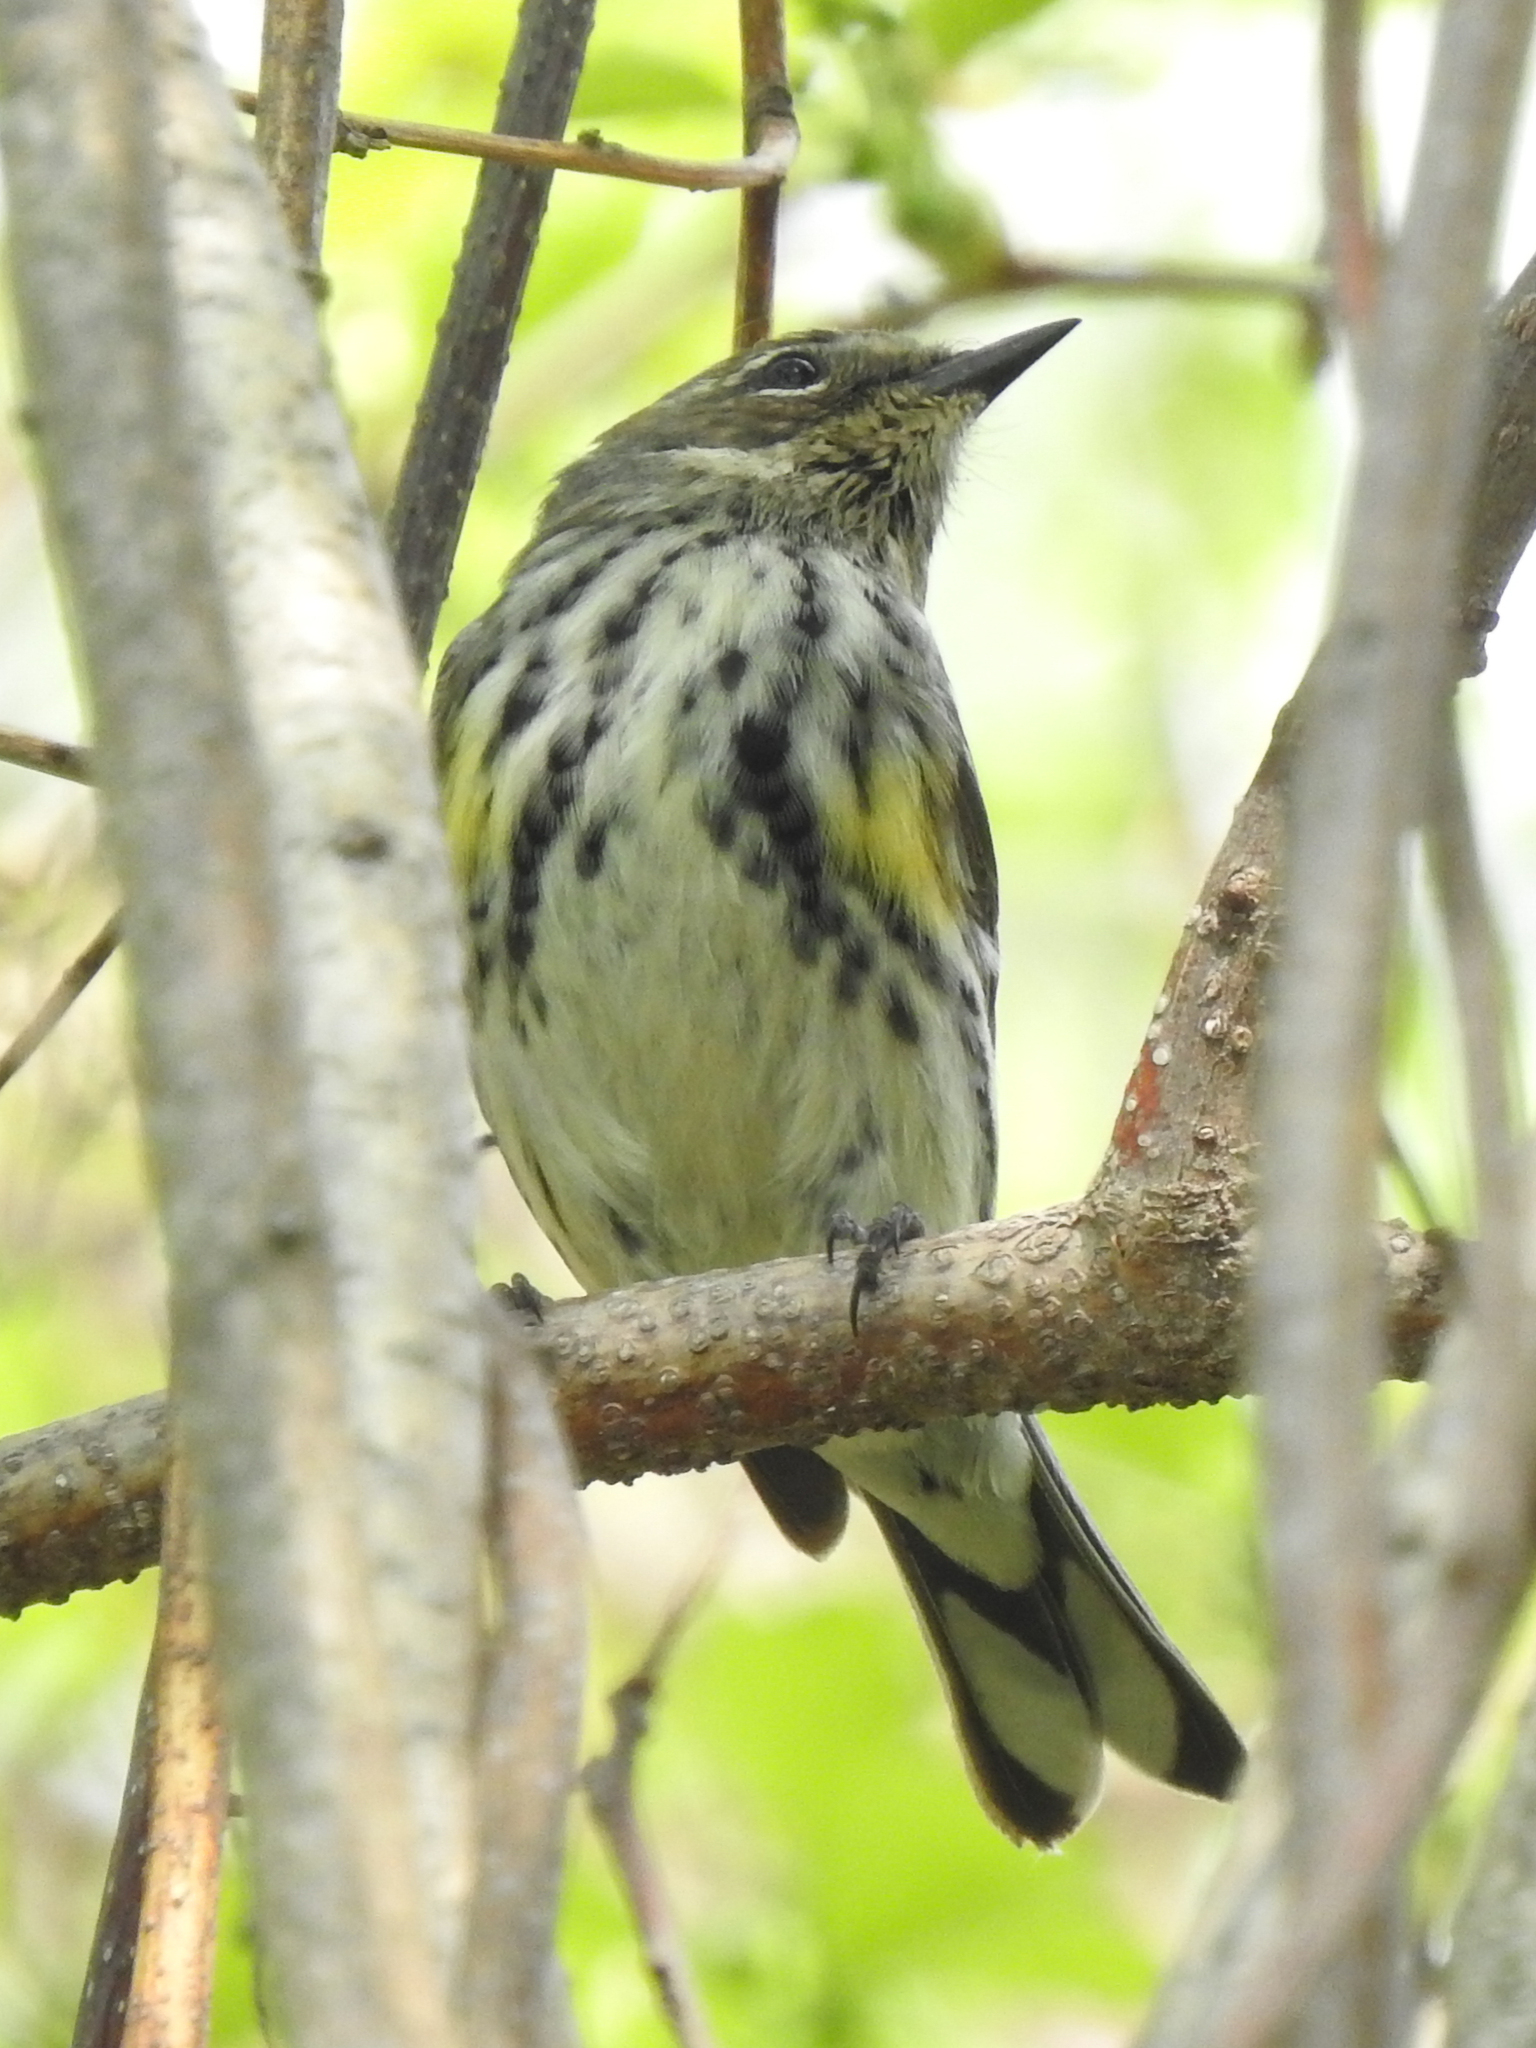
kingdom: Animalia
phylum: Chordata
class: Aves
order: Passeriformes
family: Parulidae
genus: Setophaga
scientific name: Setophaga coronata
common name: Myrtle warbler
